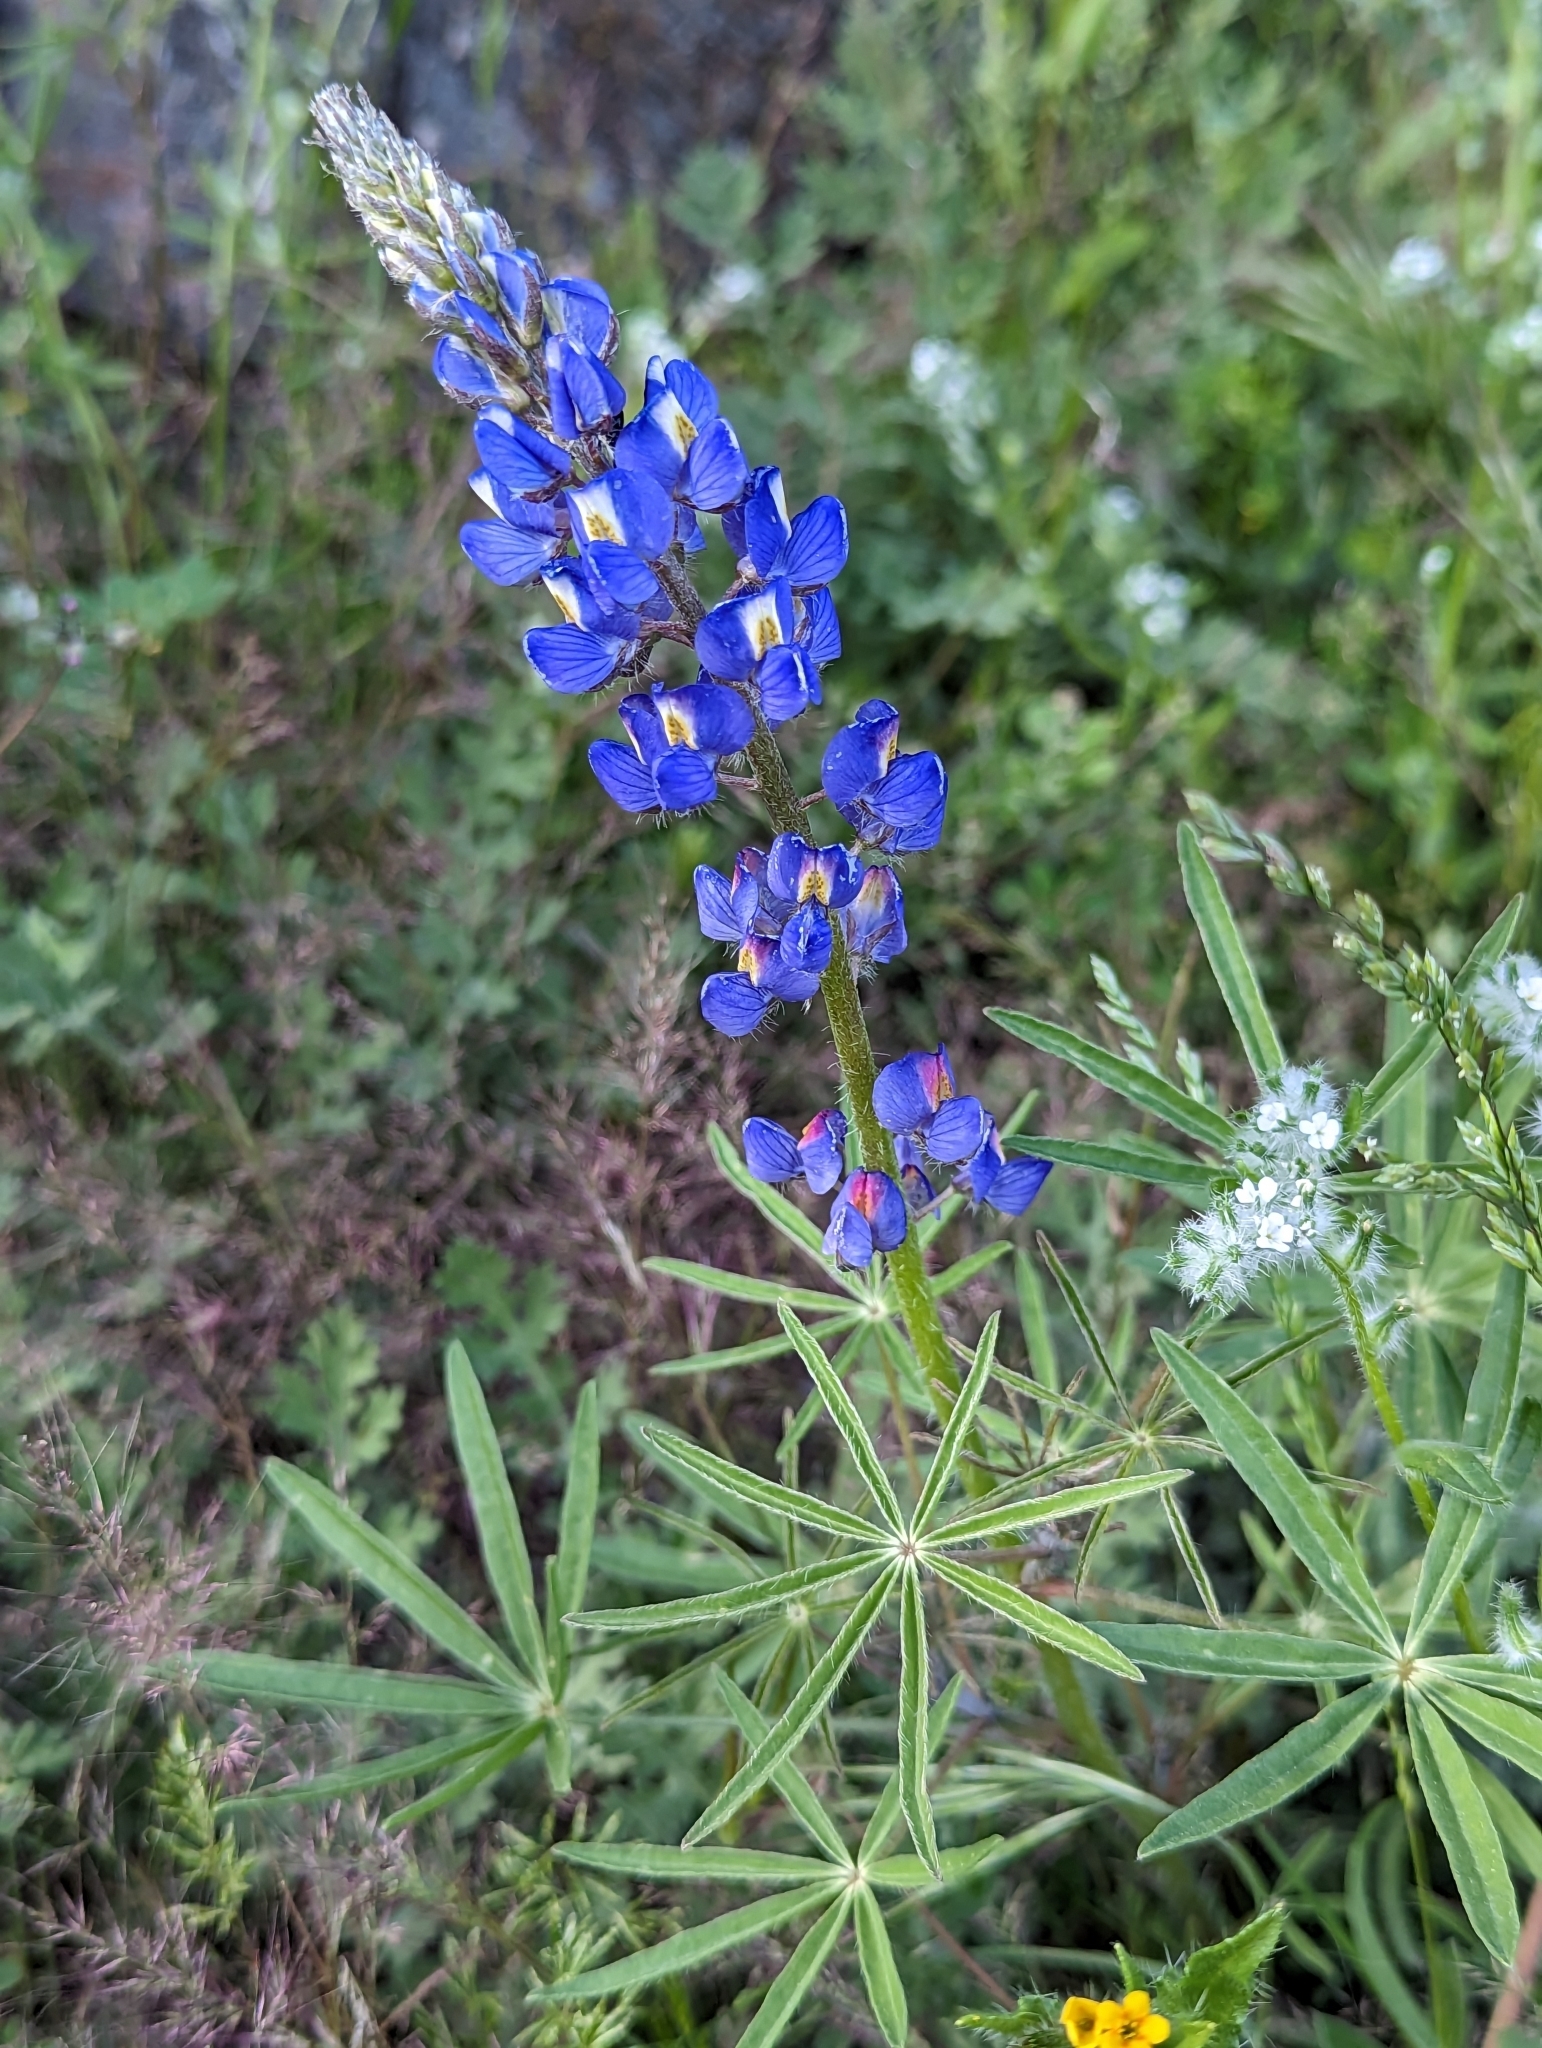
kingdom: Plantae
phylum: Tracheophyta
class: Magnoliopsida
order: Fabales
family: Fabaceae
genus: Lupinus
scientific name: Lupinus sparsiflorus
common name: Coulter's lupine
